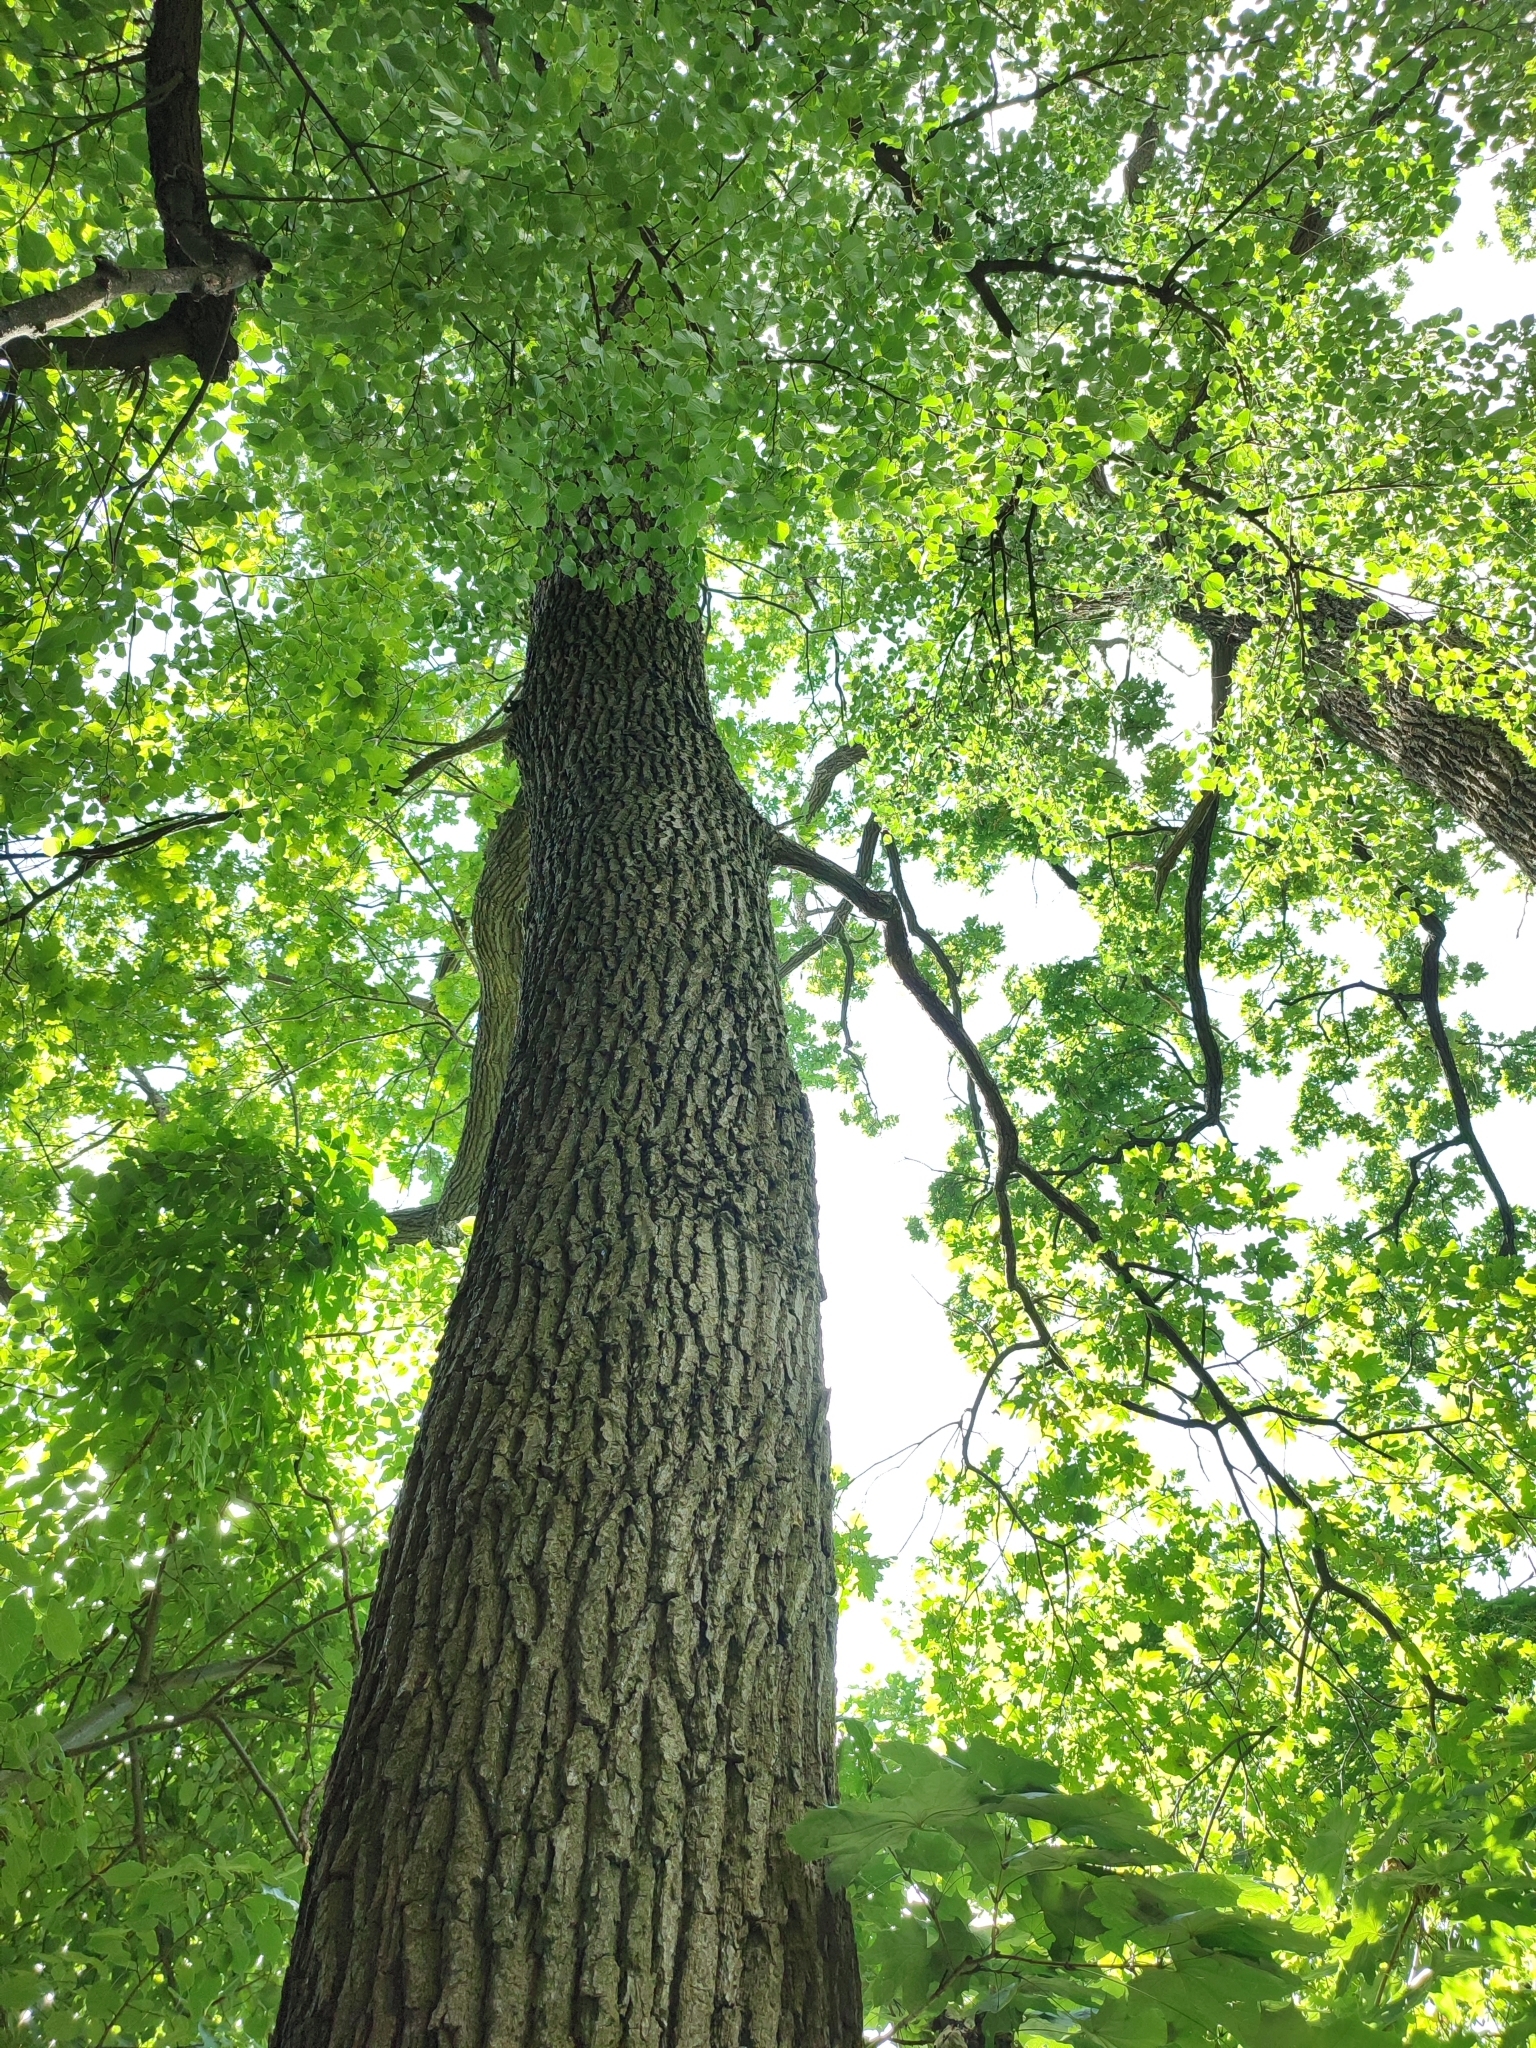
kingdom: Plantae
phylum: Tracheophyta
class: Magnoliopsida
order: Fagales
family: Fagaceae
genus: Quercus
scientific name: Quercus robur
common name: Pedunculate oak
